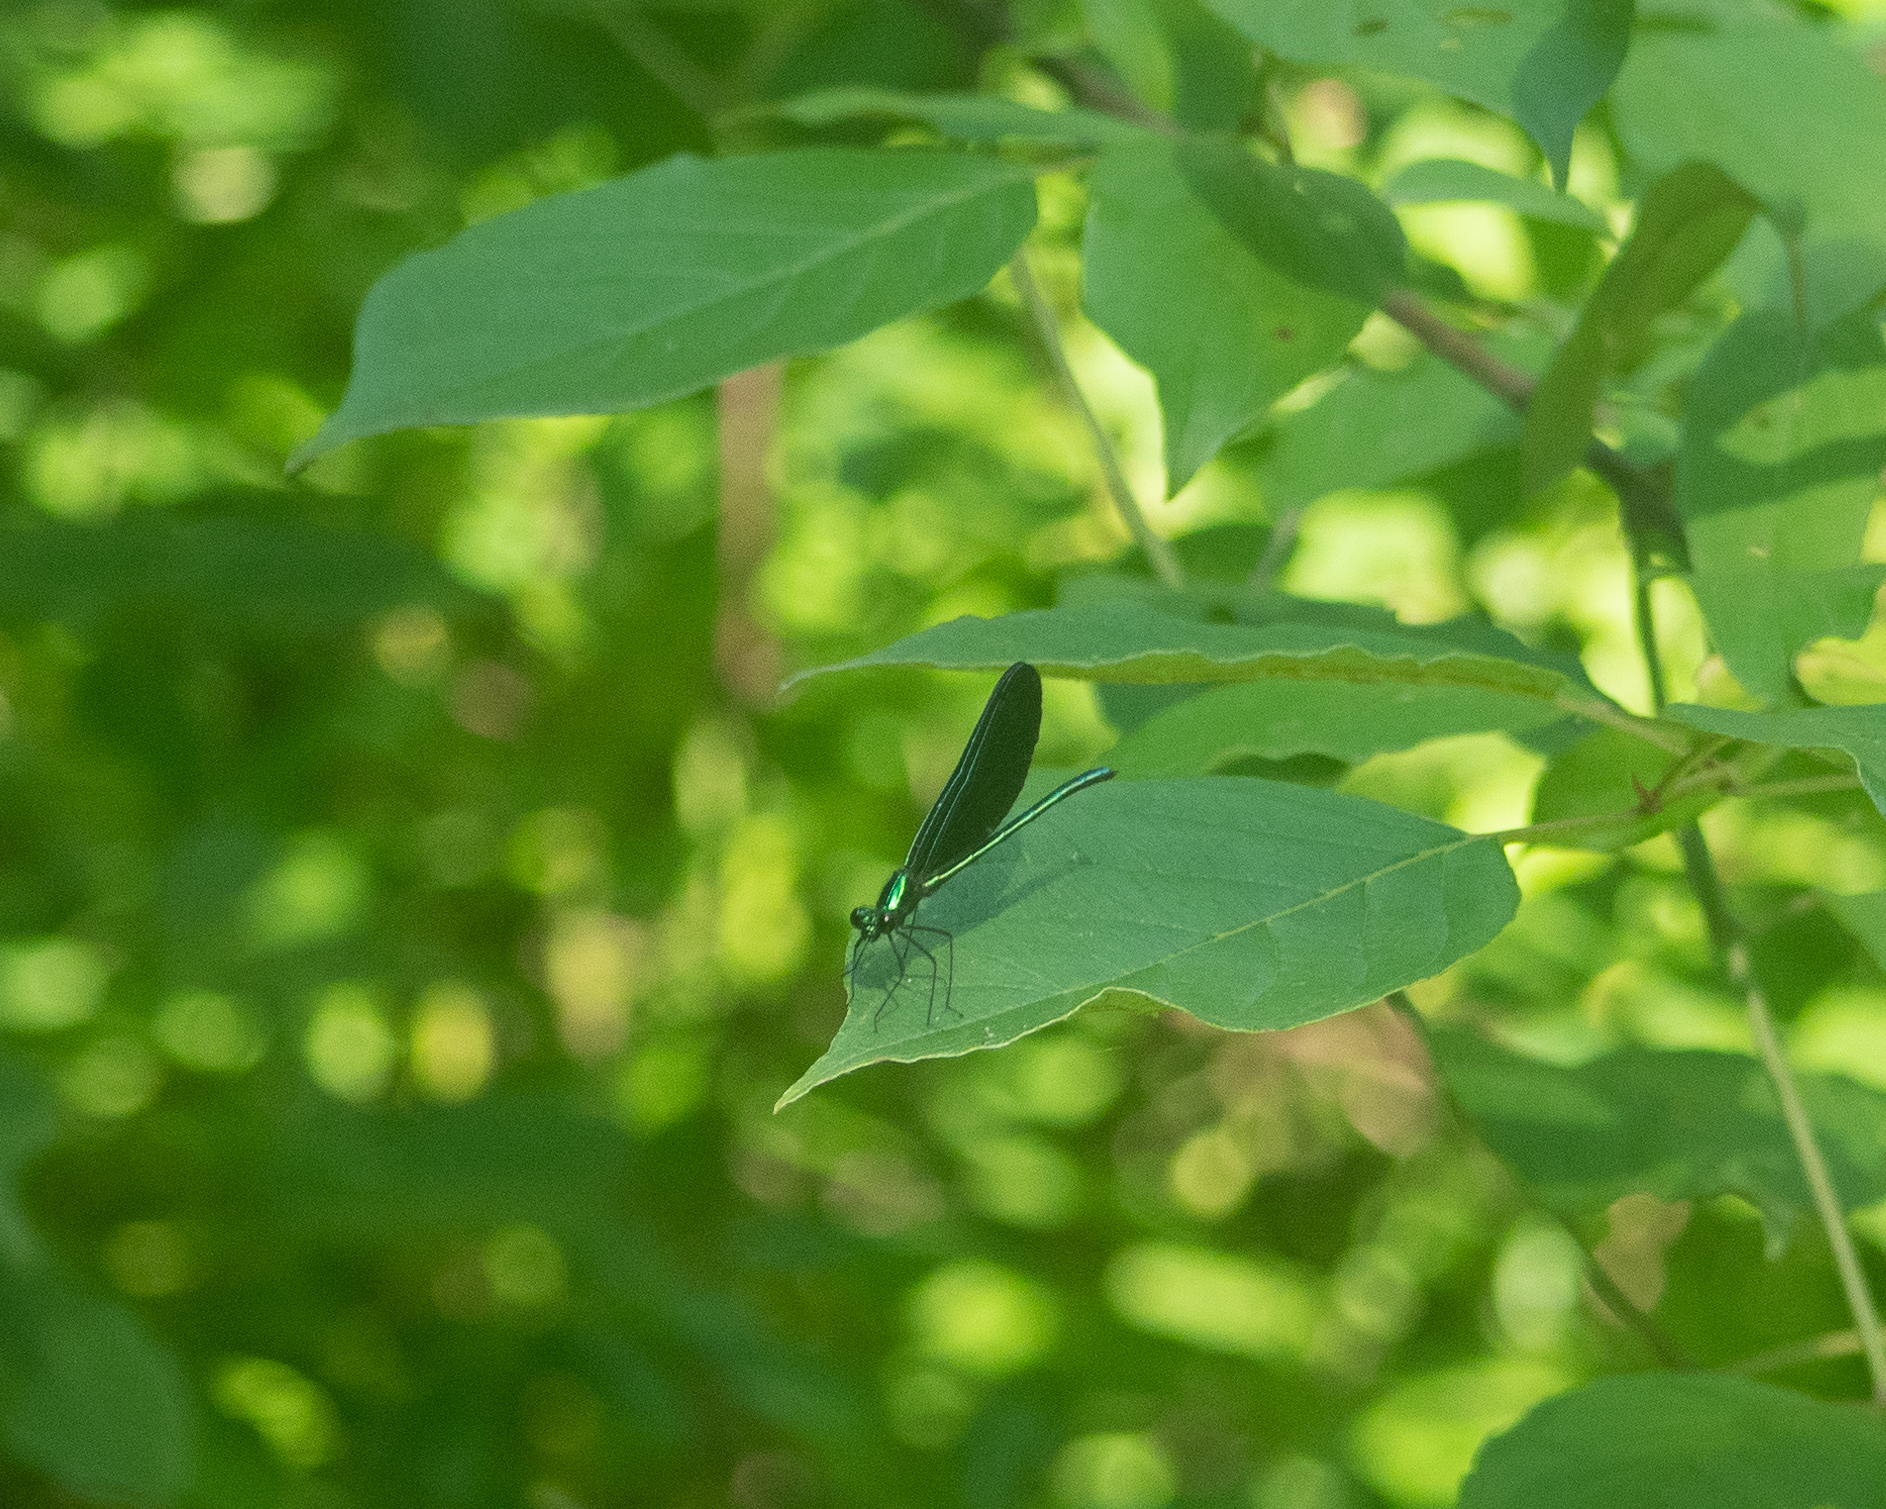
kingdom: Animalia
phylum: Arthropoda
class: Insecta
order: Odonata
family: Calopterygidae
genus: Calopteryx
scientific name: Calopteryx maculata
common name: Ebony jewelwing
